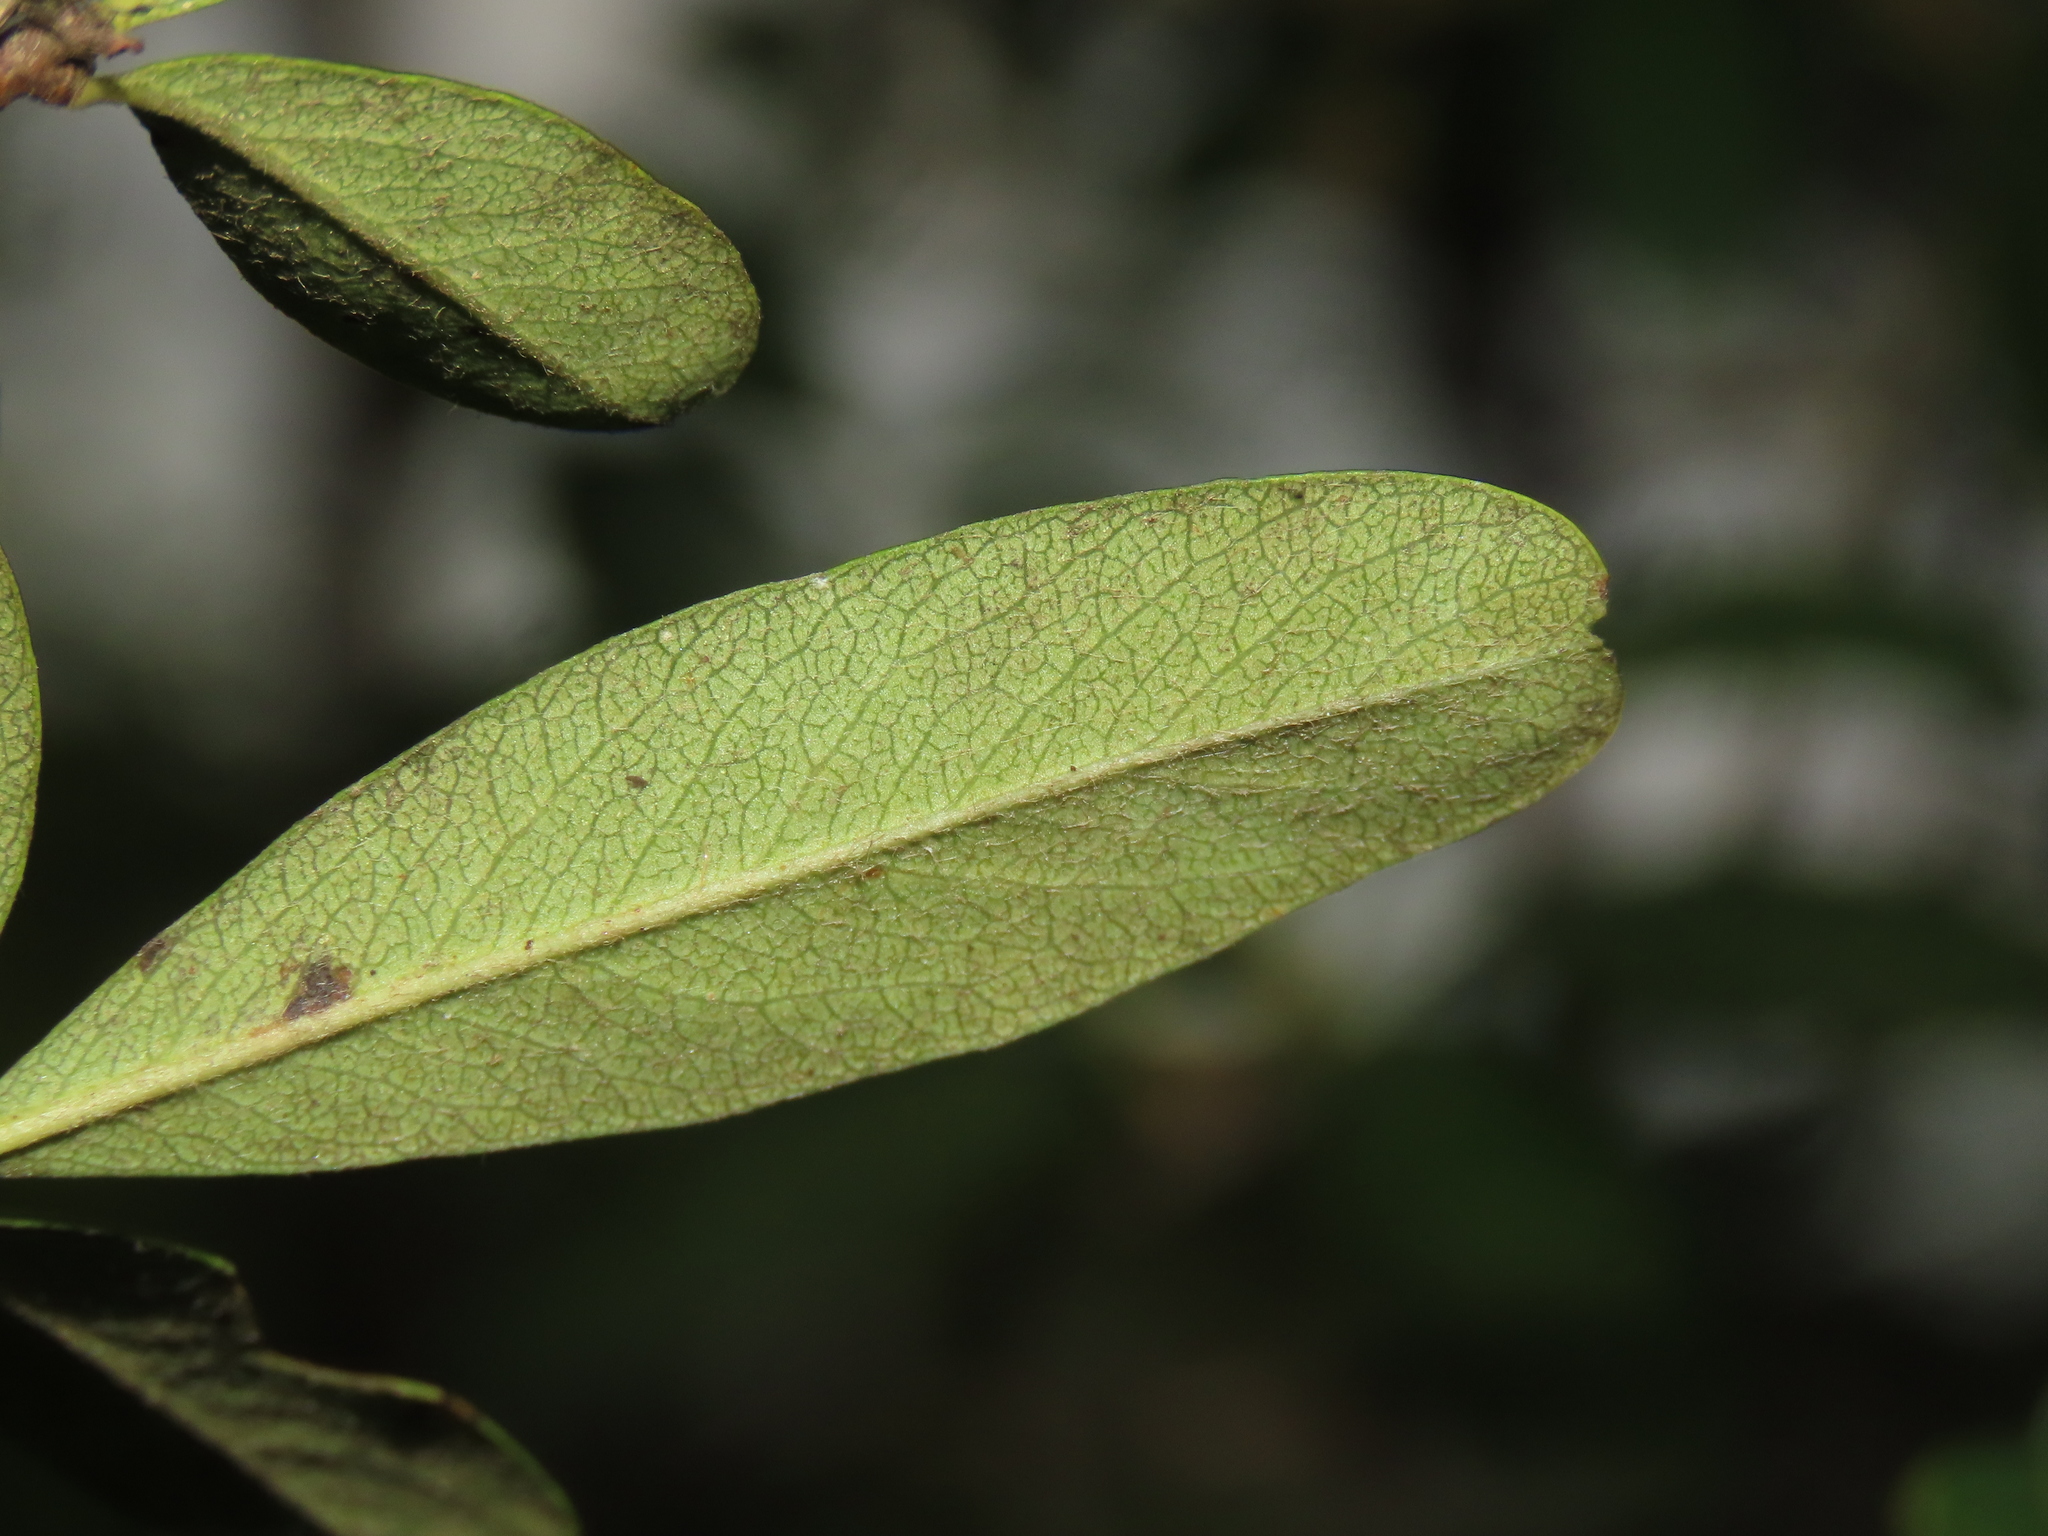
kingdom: Plantae
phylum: Tracheophyta
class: Magnoliopsida
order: Rosales
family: Rosaceae
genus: Pyracantha
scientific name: Pyracantha koidzumii
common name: Formosa firethorn
